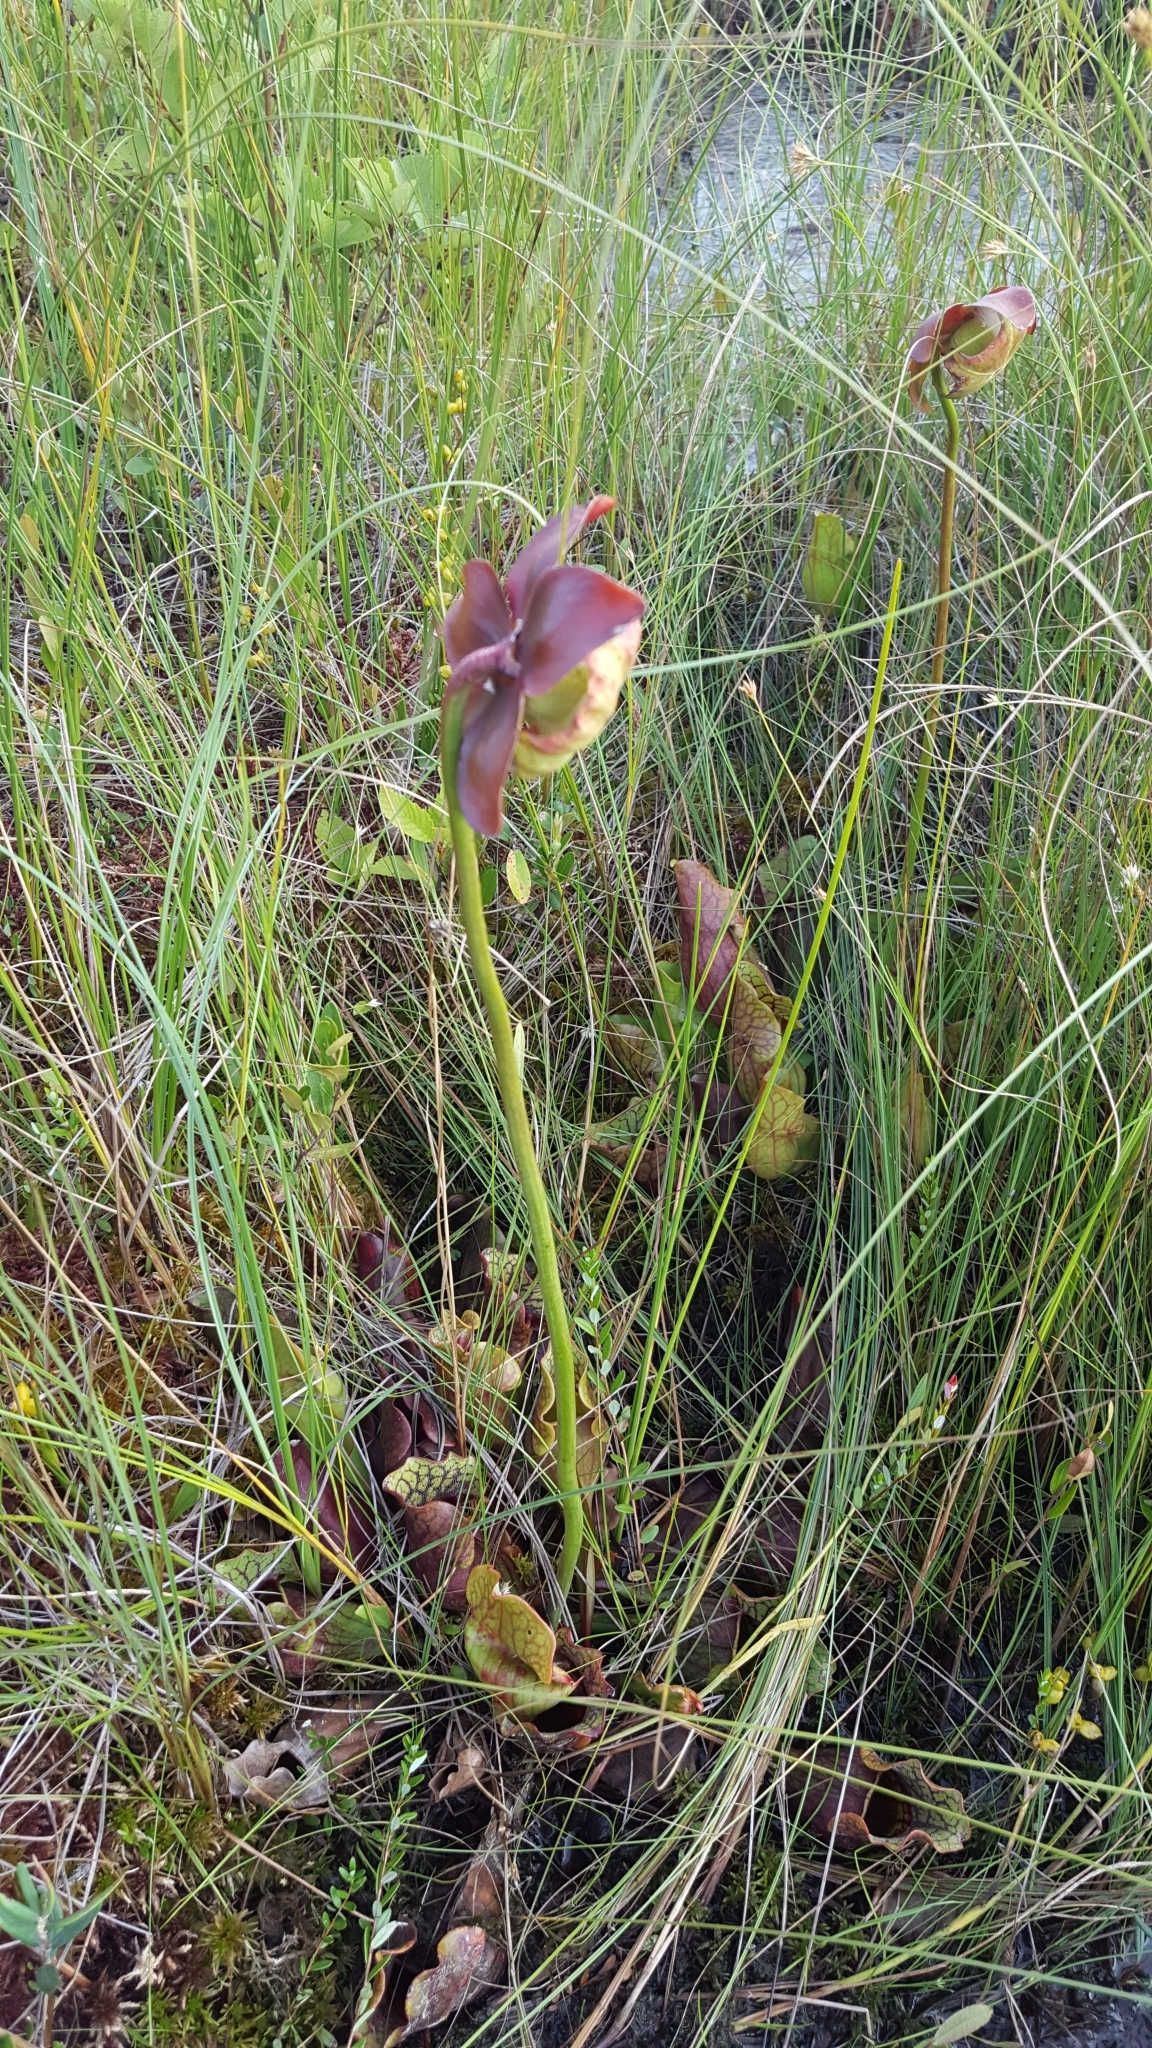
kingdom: Plantae
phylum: Tracheophyta
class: Magnoliopsida
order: Ericales
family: Sarraceniaceae
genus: Sarracenia
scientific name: Sarracenia purpurea
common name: Pitcherplant
